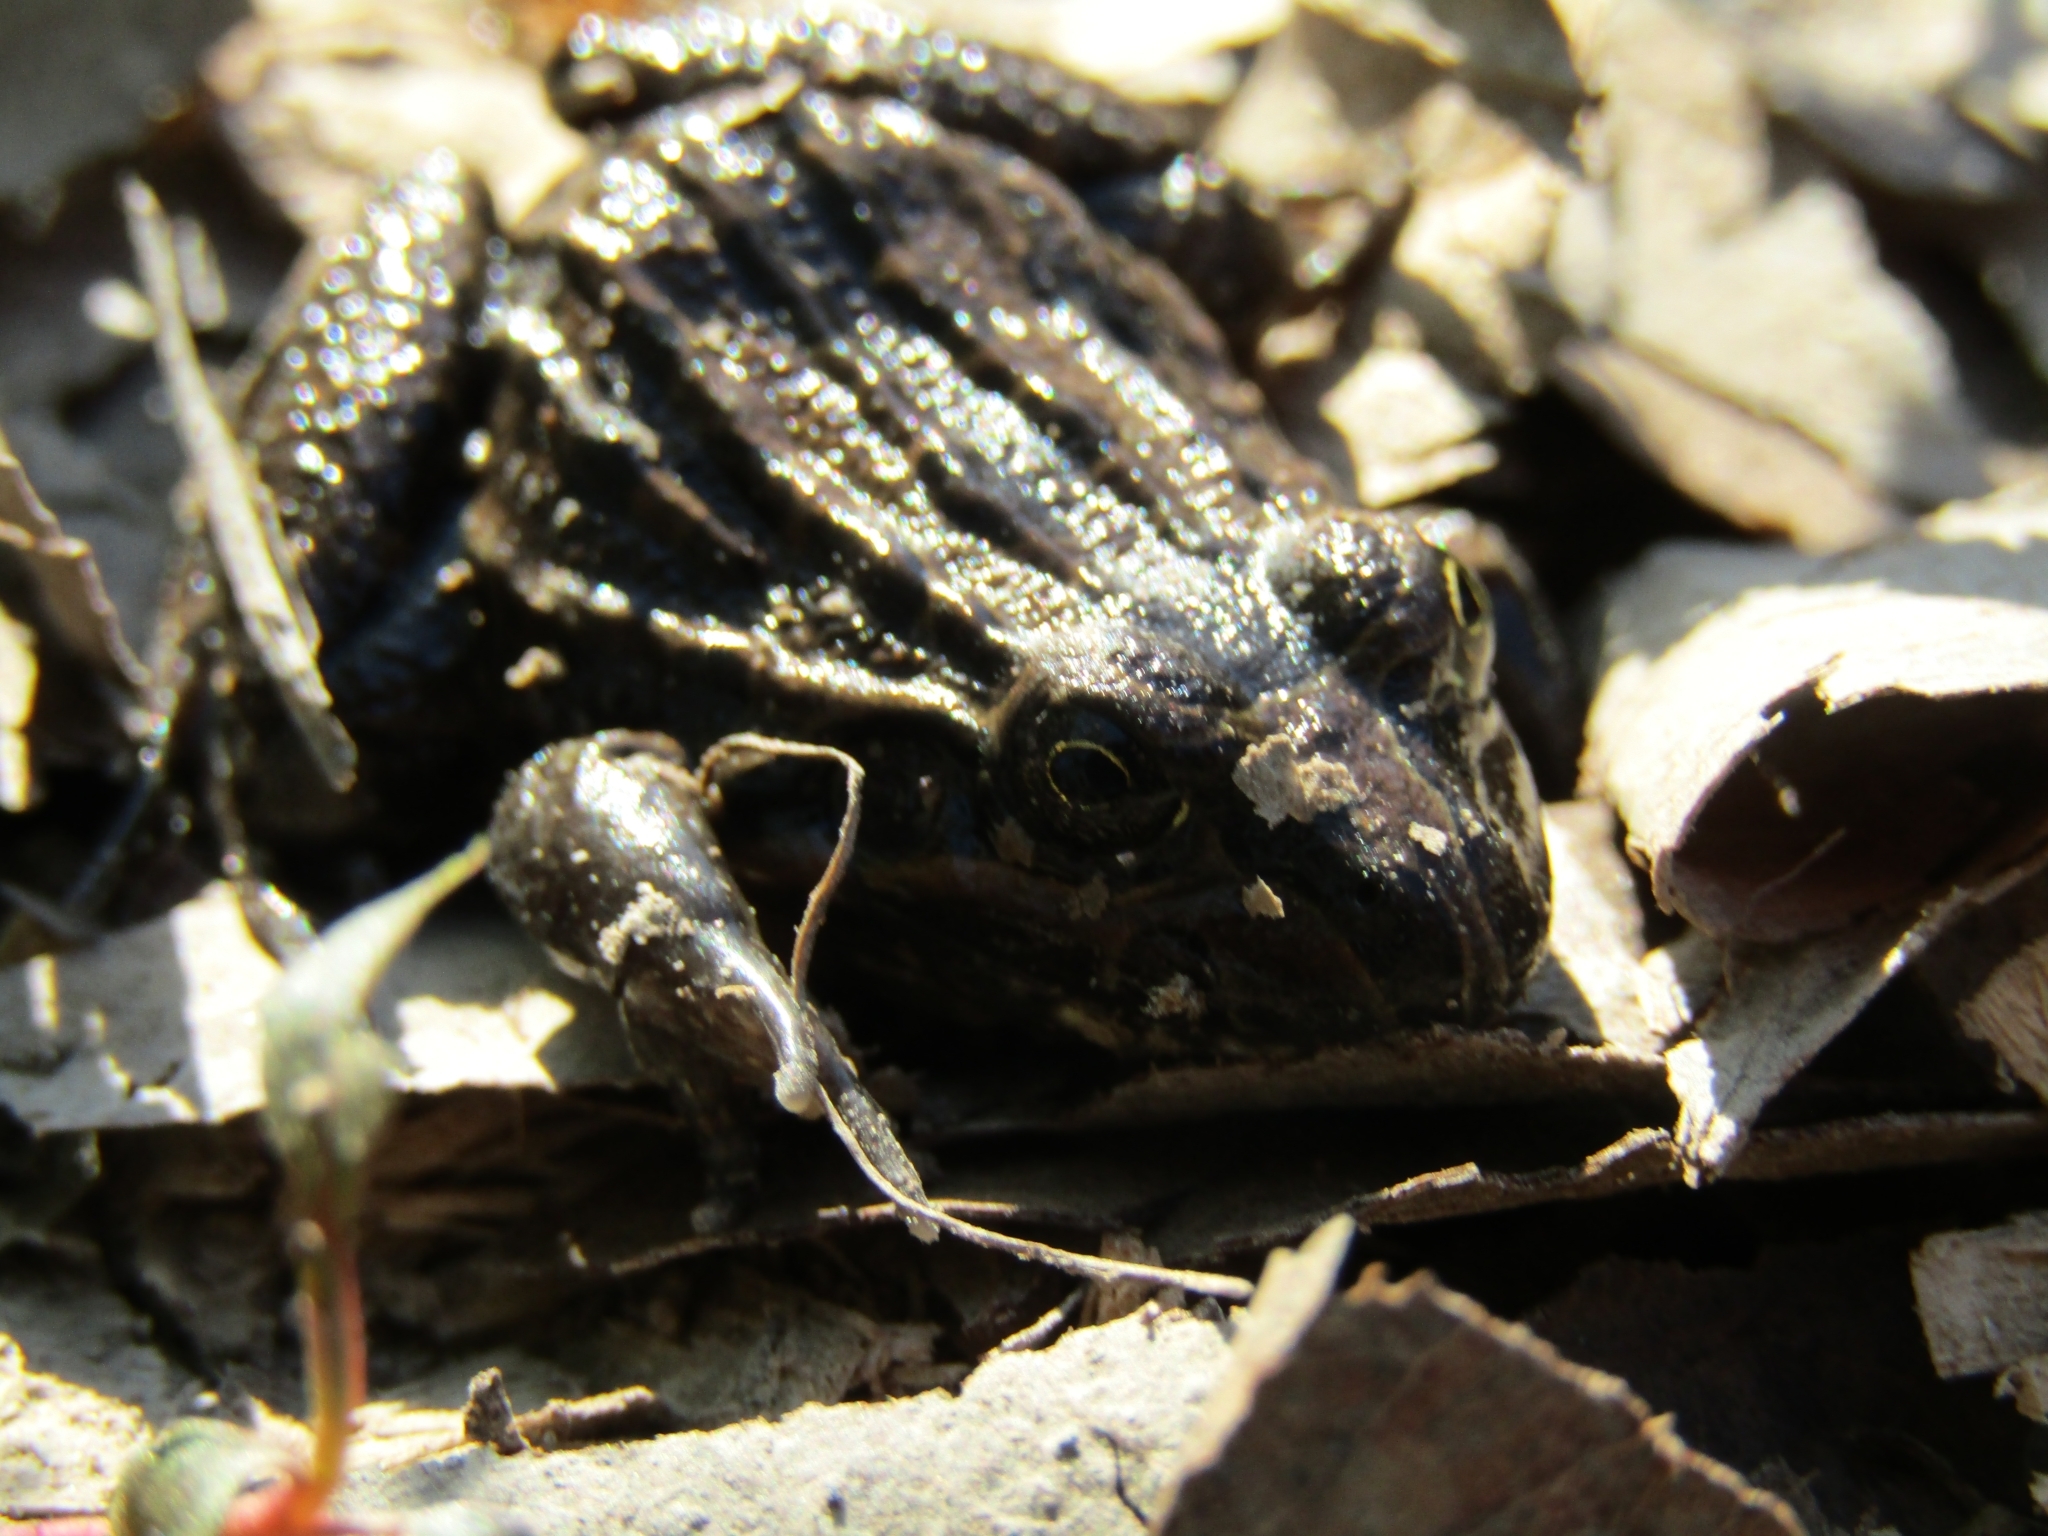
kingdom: Animalia
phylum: Chordata
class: Amphibia
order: Anura
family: Leptodactylidae
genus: Leptodactylus
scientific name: Leptodactylus luctator
